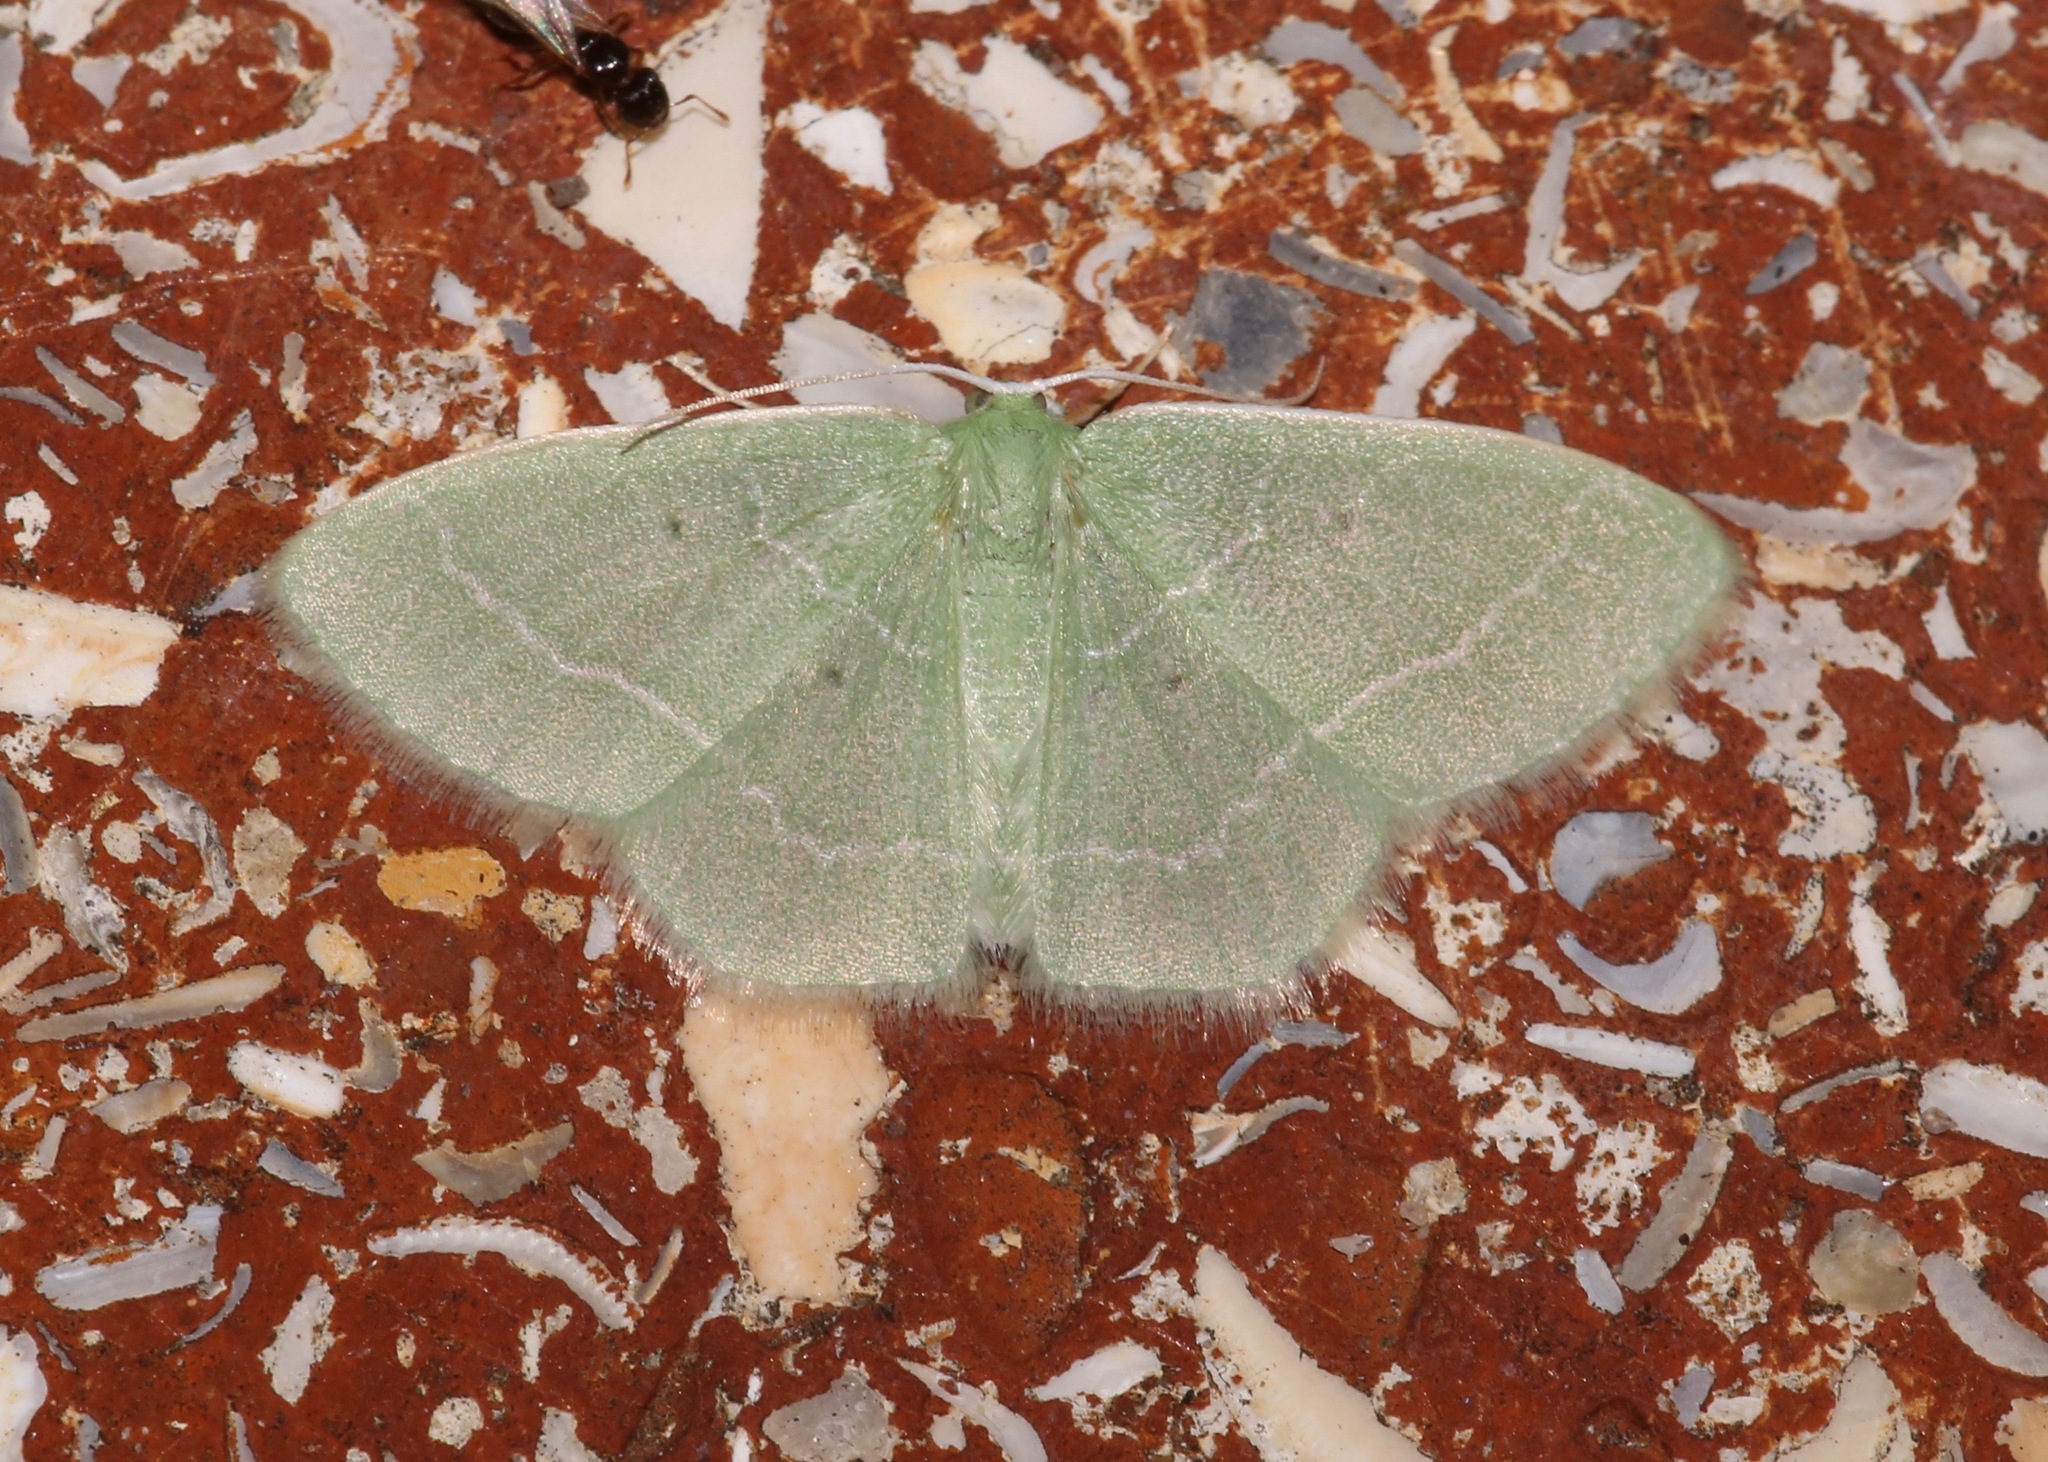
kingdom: Animalia
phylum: Arthropoda
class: Insecta
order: Lepidoptera
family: Geometridae
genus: Nemoria
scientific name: Nemoria elfa
